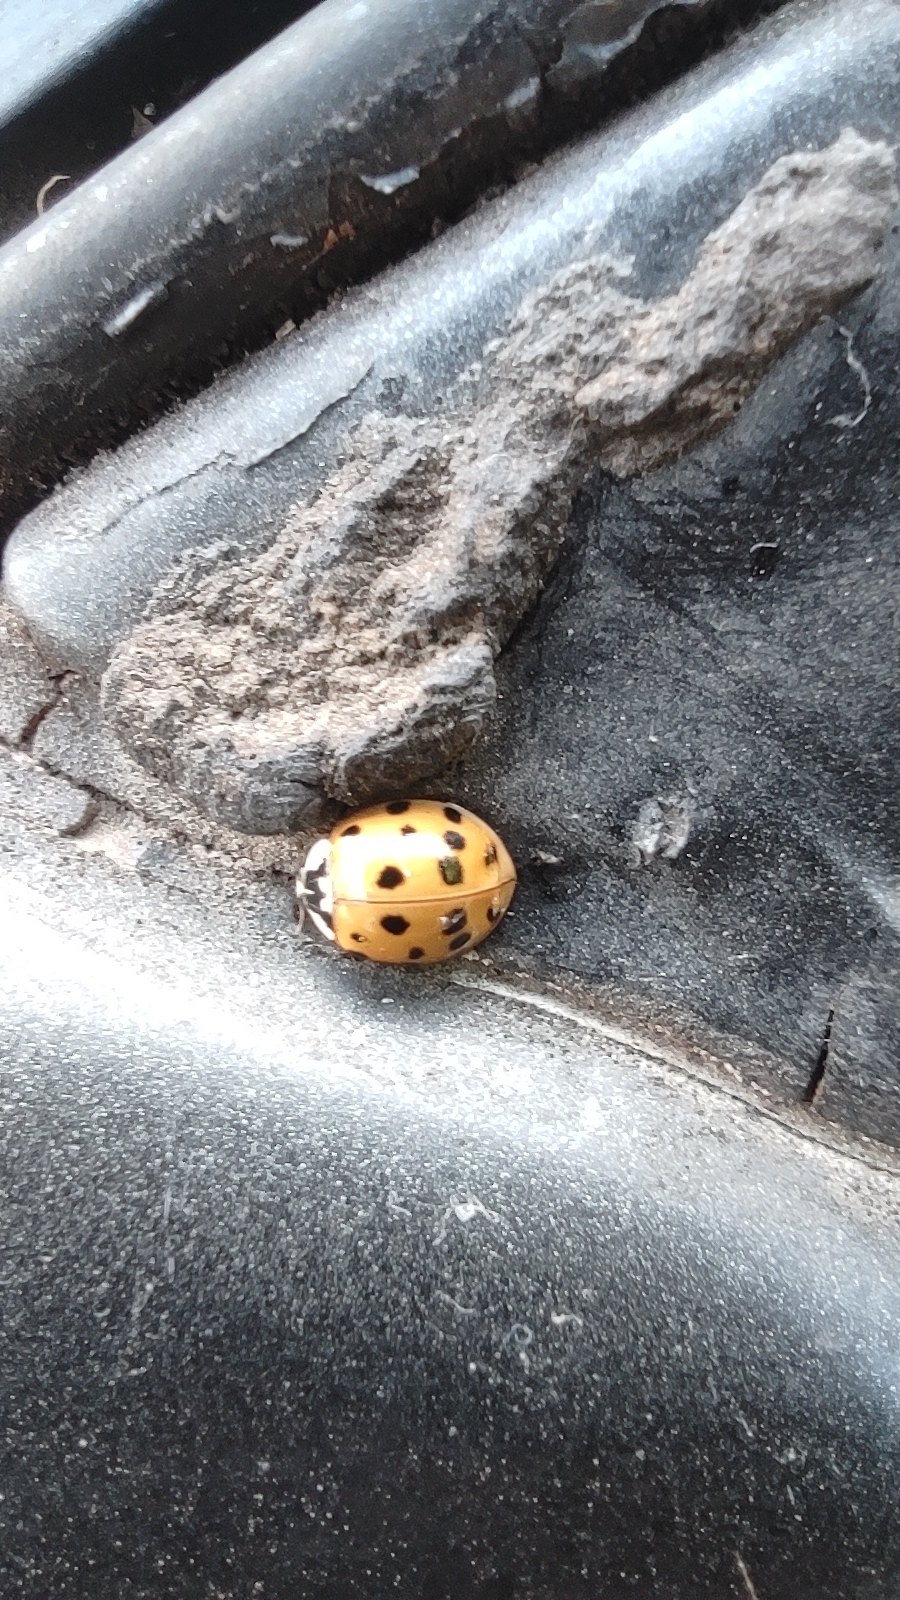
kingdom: Animalia
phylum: Arthropoda
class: Insecta
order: Coleoptera
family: Coccinellidae
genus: Harmonia
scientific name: Harmonia axyridis
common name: Harlequin ladybird
